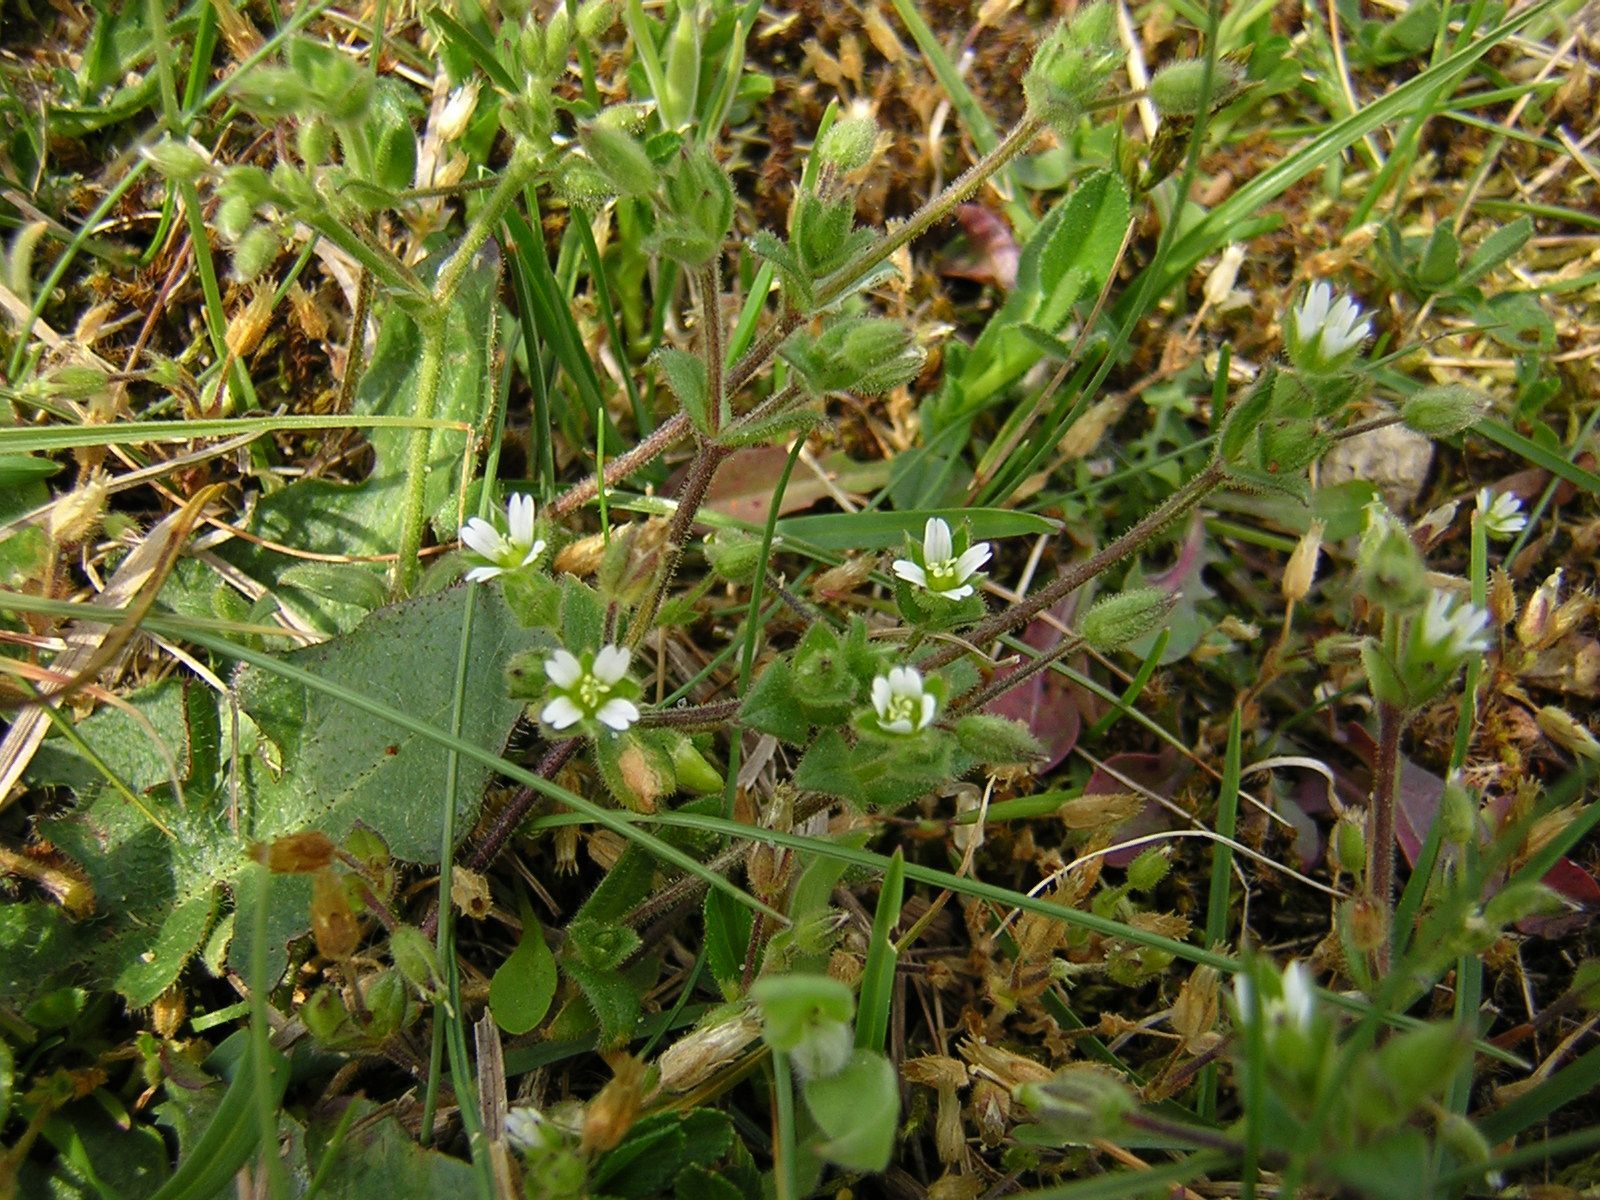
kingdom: Plantae
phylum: Tracheophyta
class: Magnoliopsida
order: Caryophyllales
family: Caryophyllaceae
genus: Cerastium
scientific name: Cerastium diffusum
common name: Fourstamen chickweed
